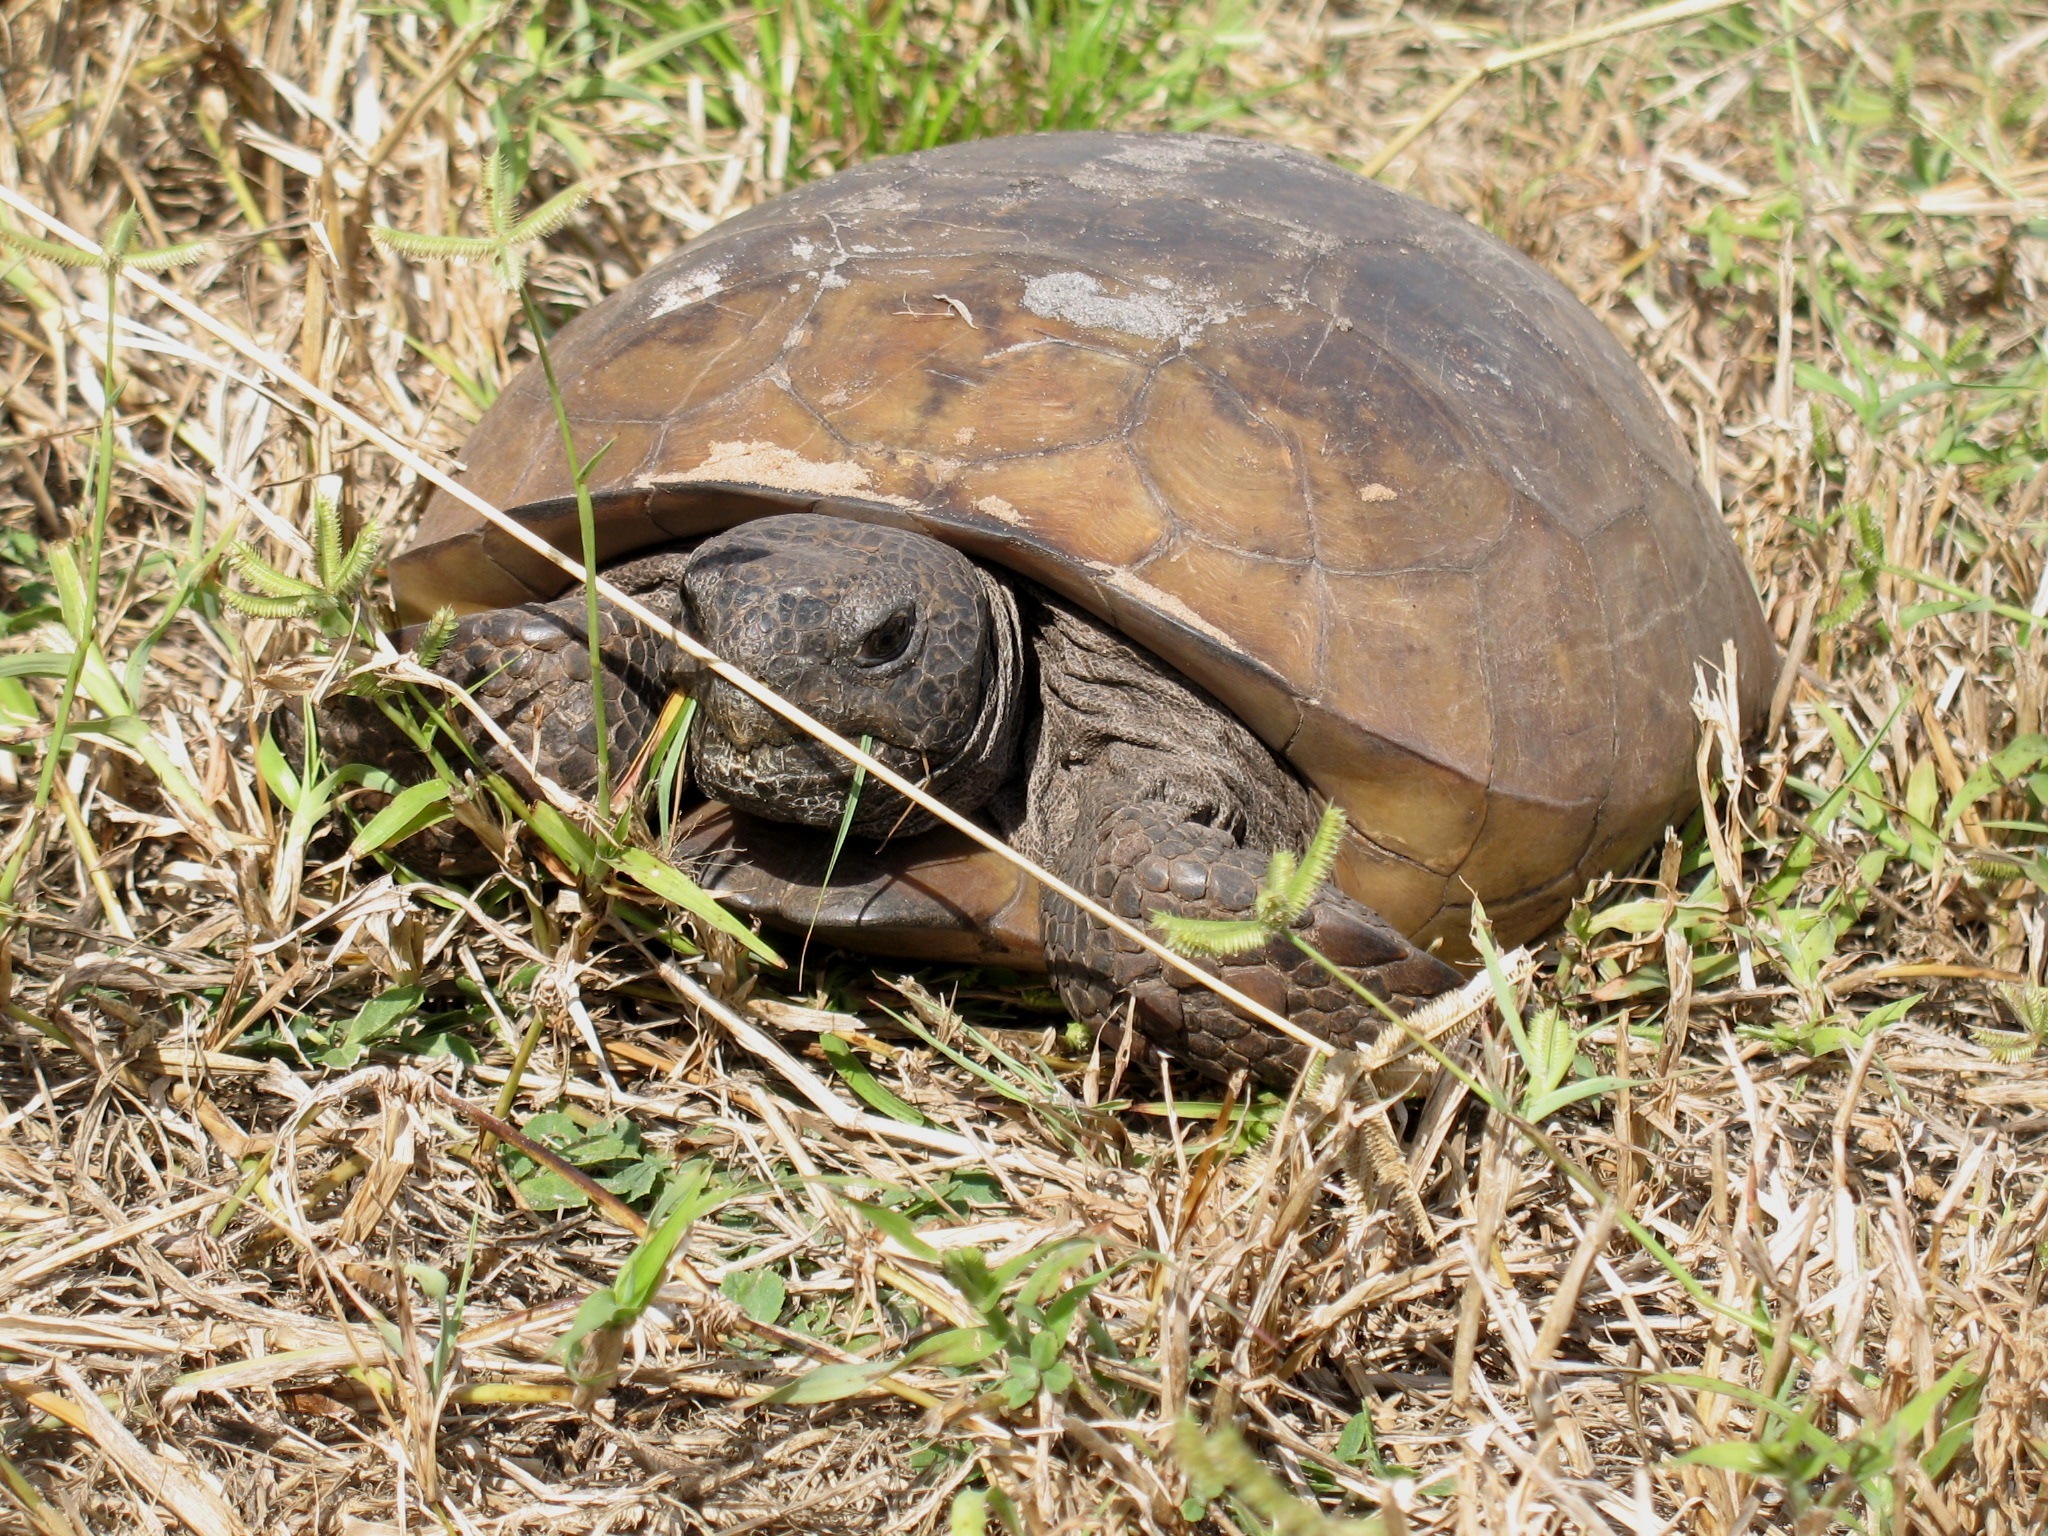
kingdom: Animalia
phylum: Chordata
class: Testudines
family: Testudinidae
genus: Gopherus
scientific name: Gopherus polyphemus
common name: Florida gopher tortoise
